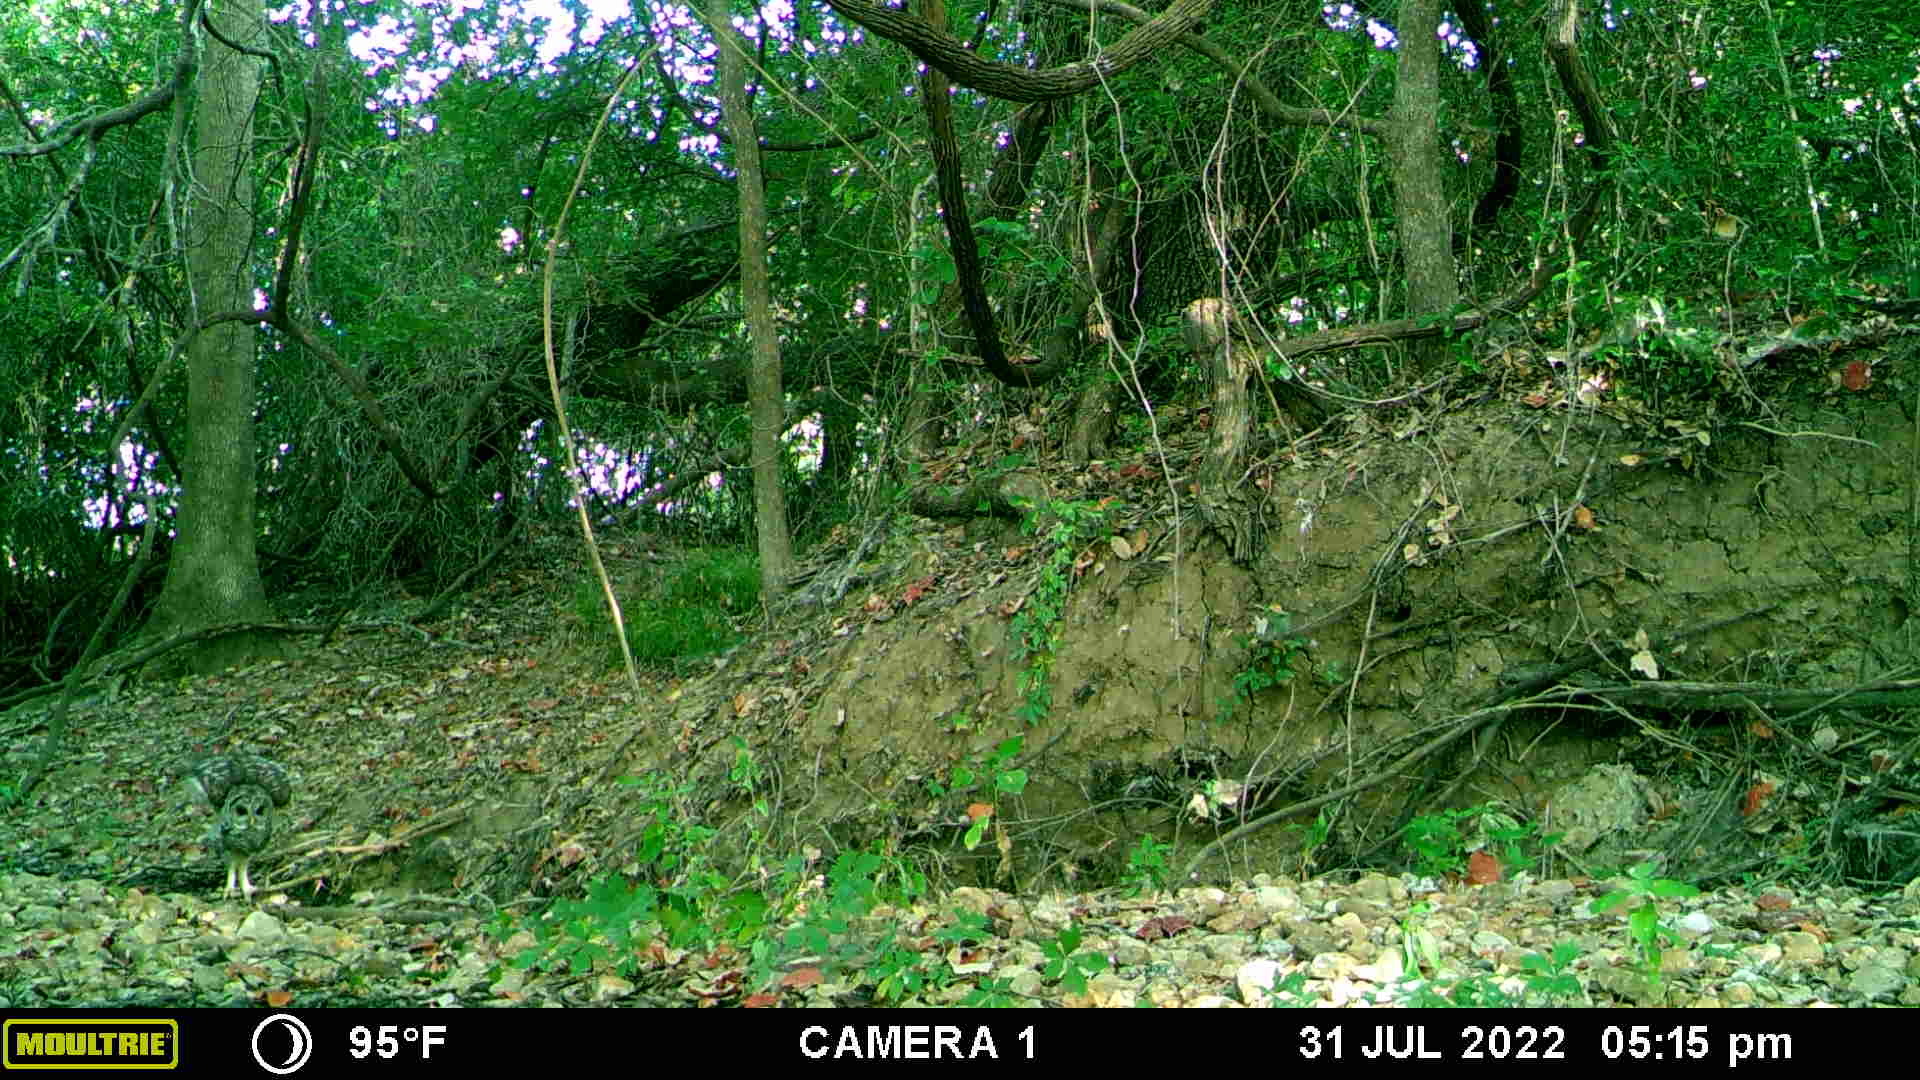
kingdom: Animalia
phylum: Chordata
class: Aves
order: Strigiformes
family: Strigidae
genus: Strix
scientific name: Strix varia
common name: Barred owl
